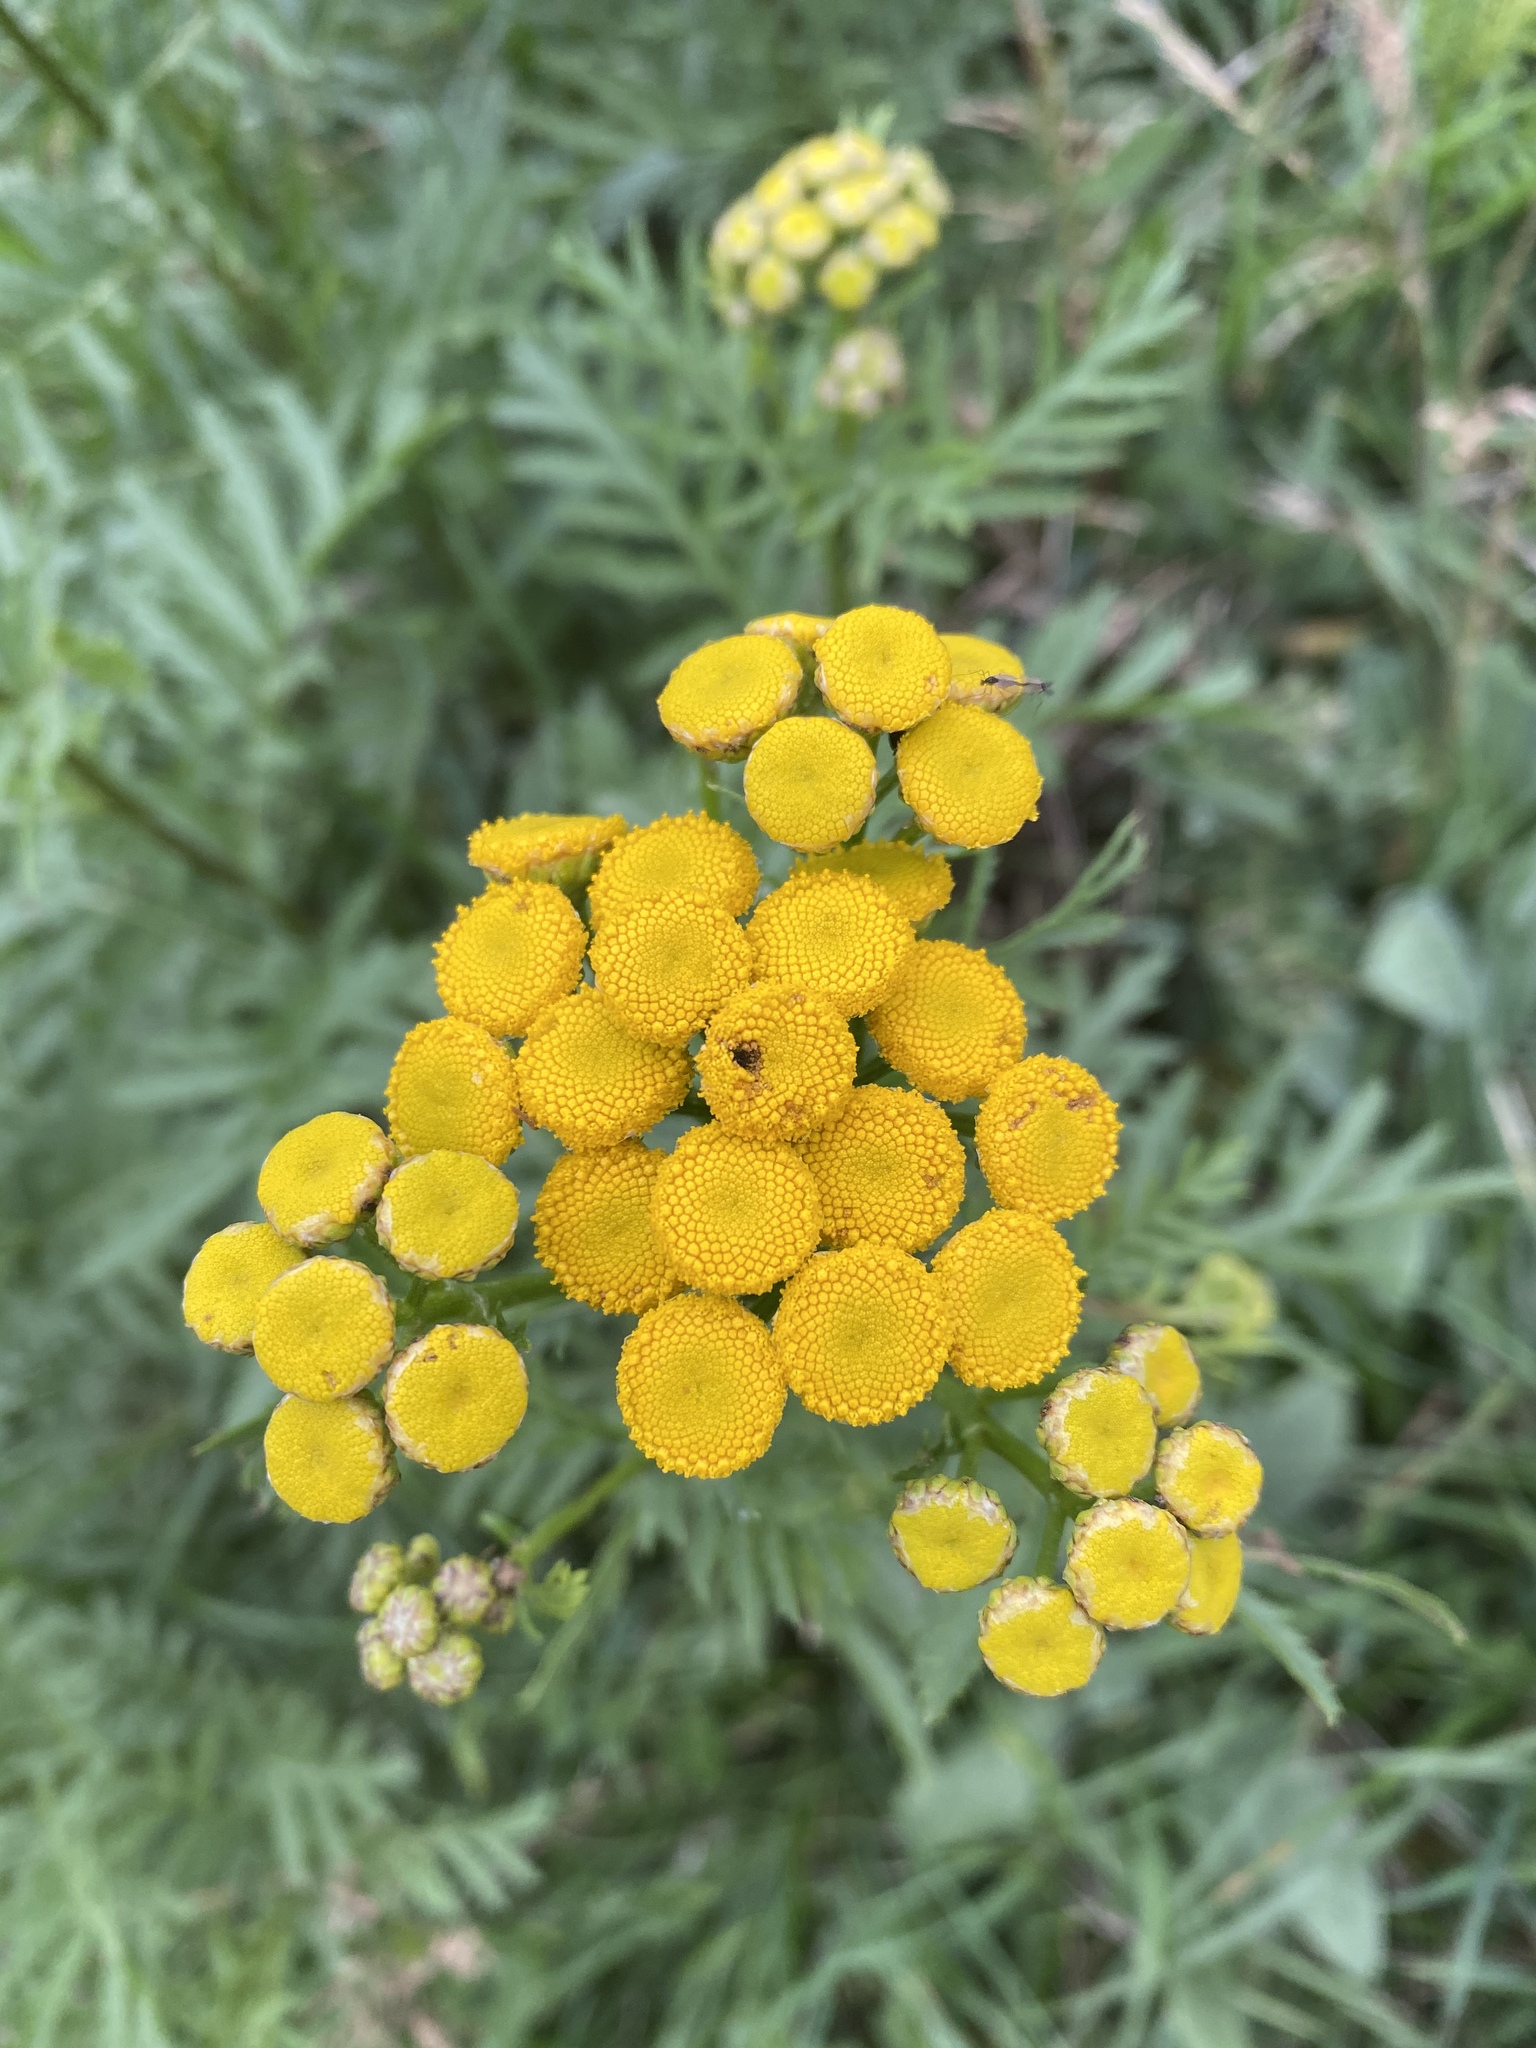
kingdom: Plantae
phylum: Tracheophyta
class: Magnoliopsida
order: Asterales
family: Asteraceae
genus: Tanacetum
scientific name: Tanacetum vulgare
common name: Common tansy
